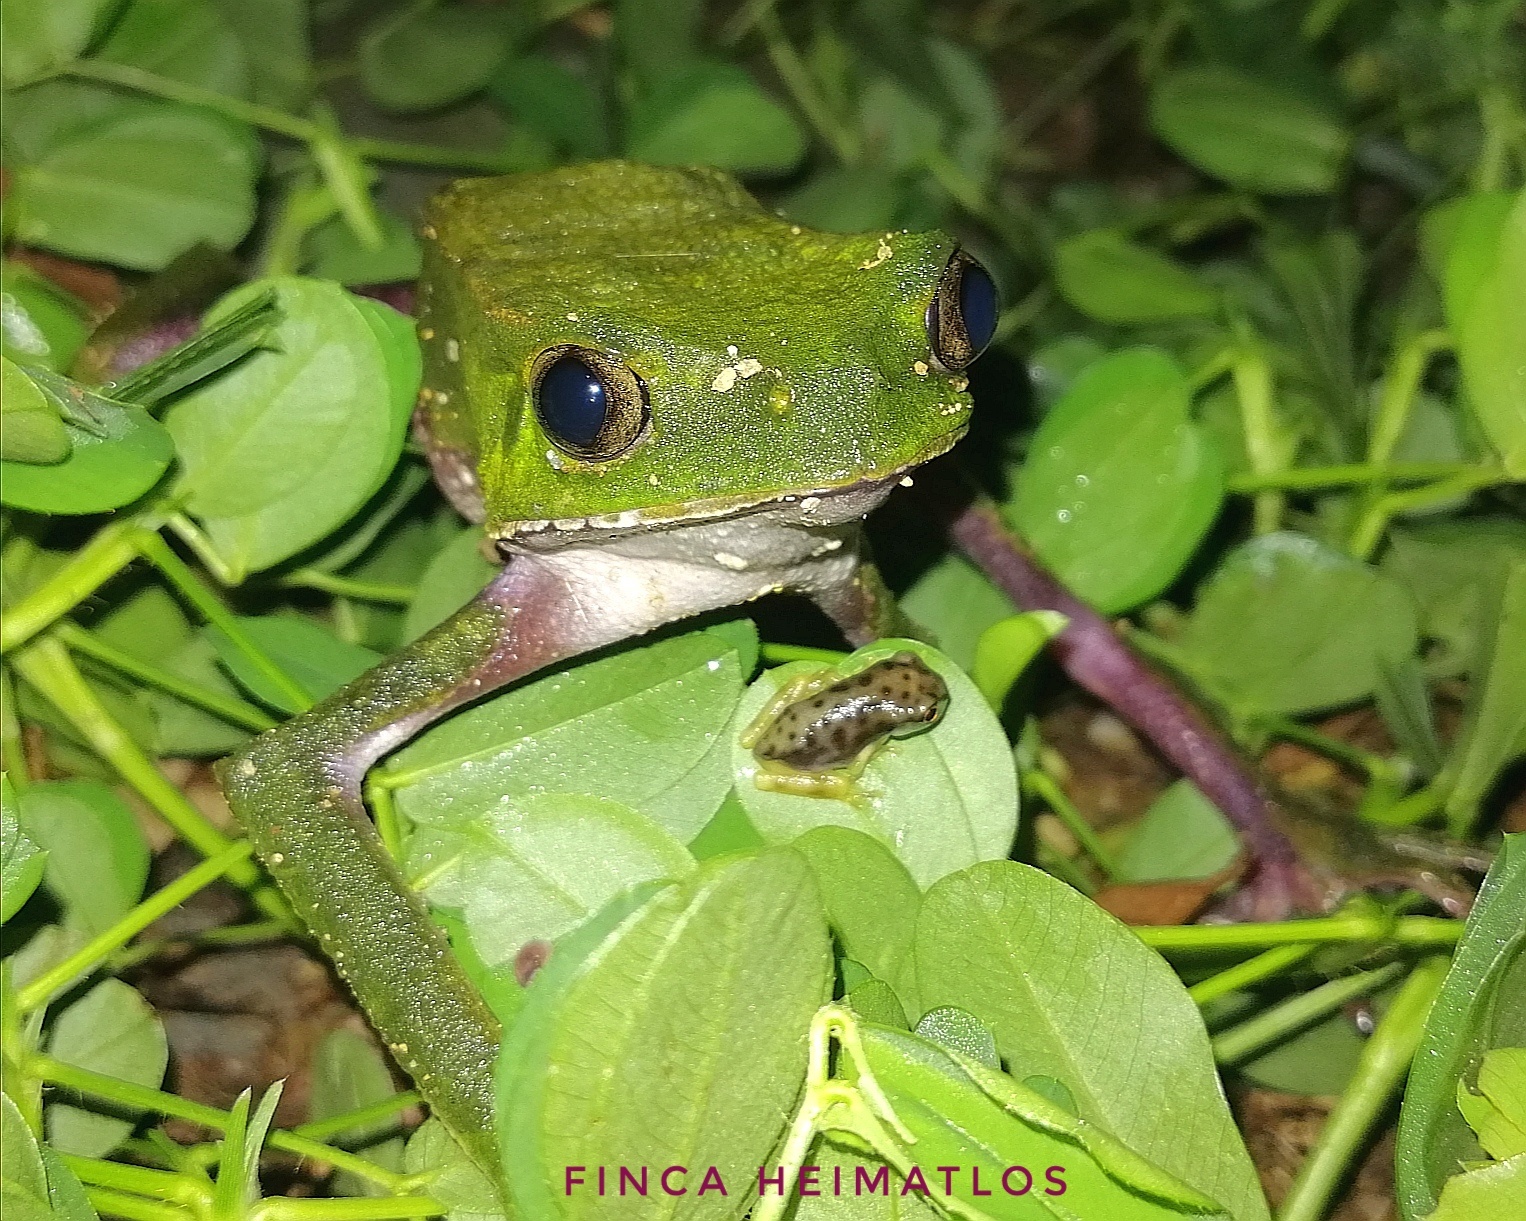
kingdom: Animalia
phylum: Chordata
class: Amphibia
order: Anura
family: Phyllomedusidae
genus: Phyllomedusa
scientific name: Phyllomedusa vaillantii
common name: White-lined leaf frog
